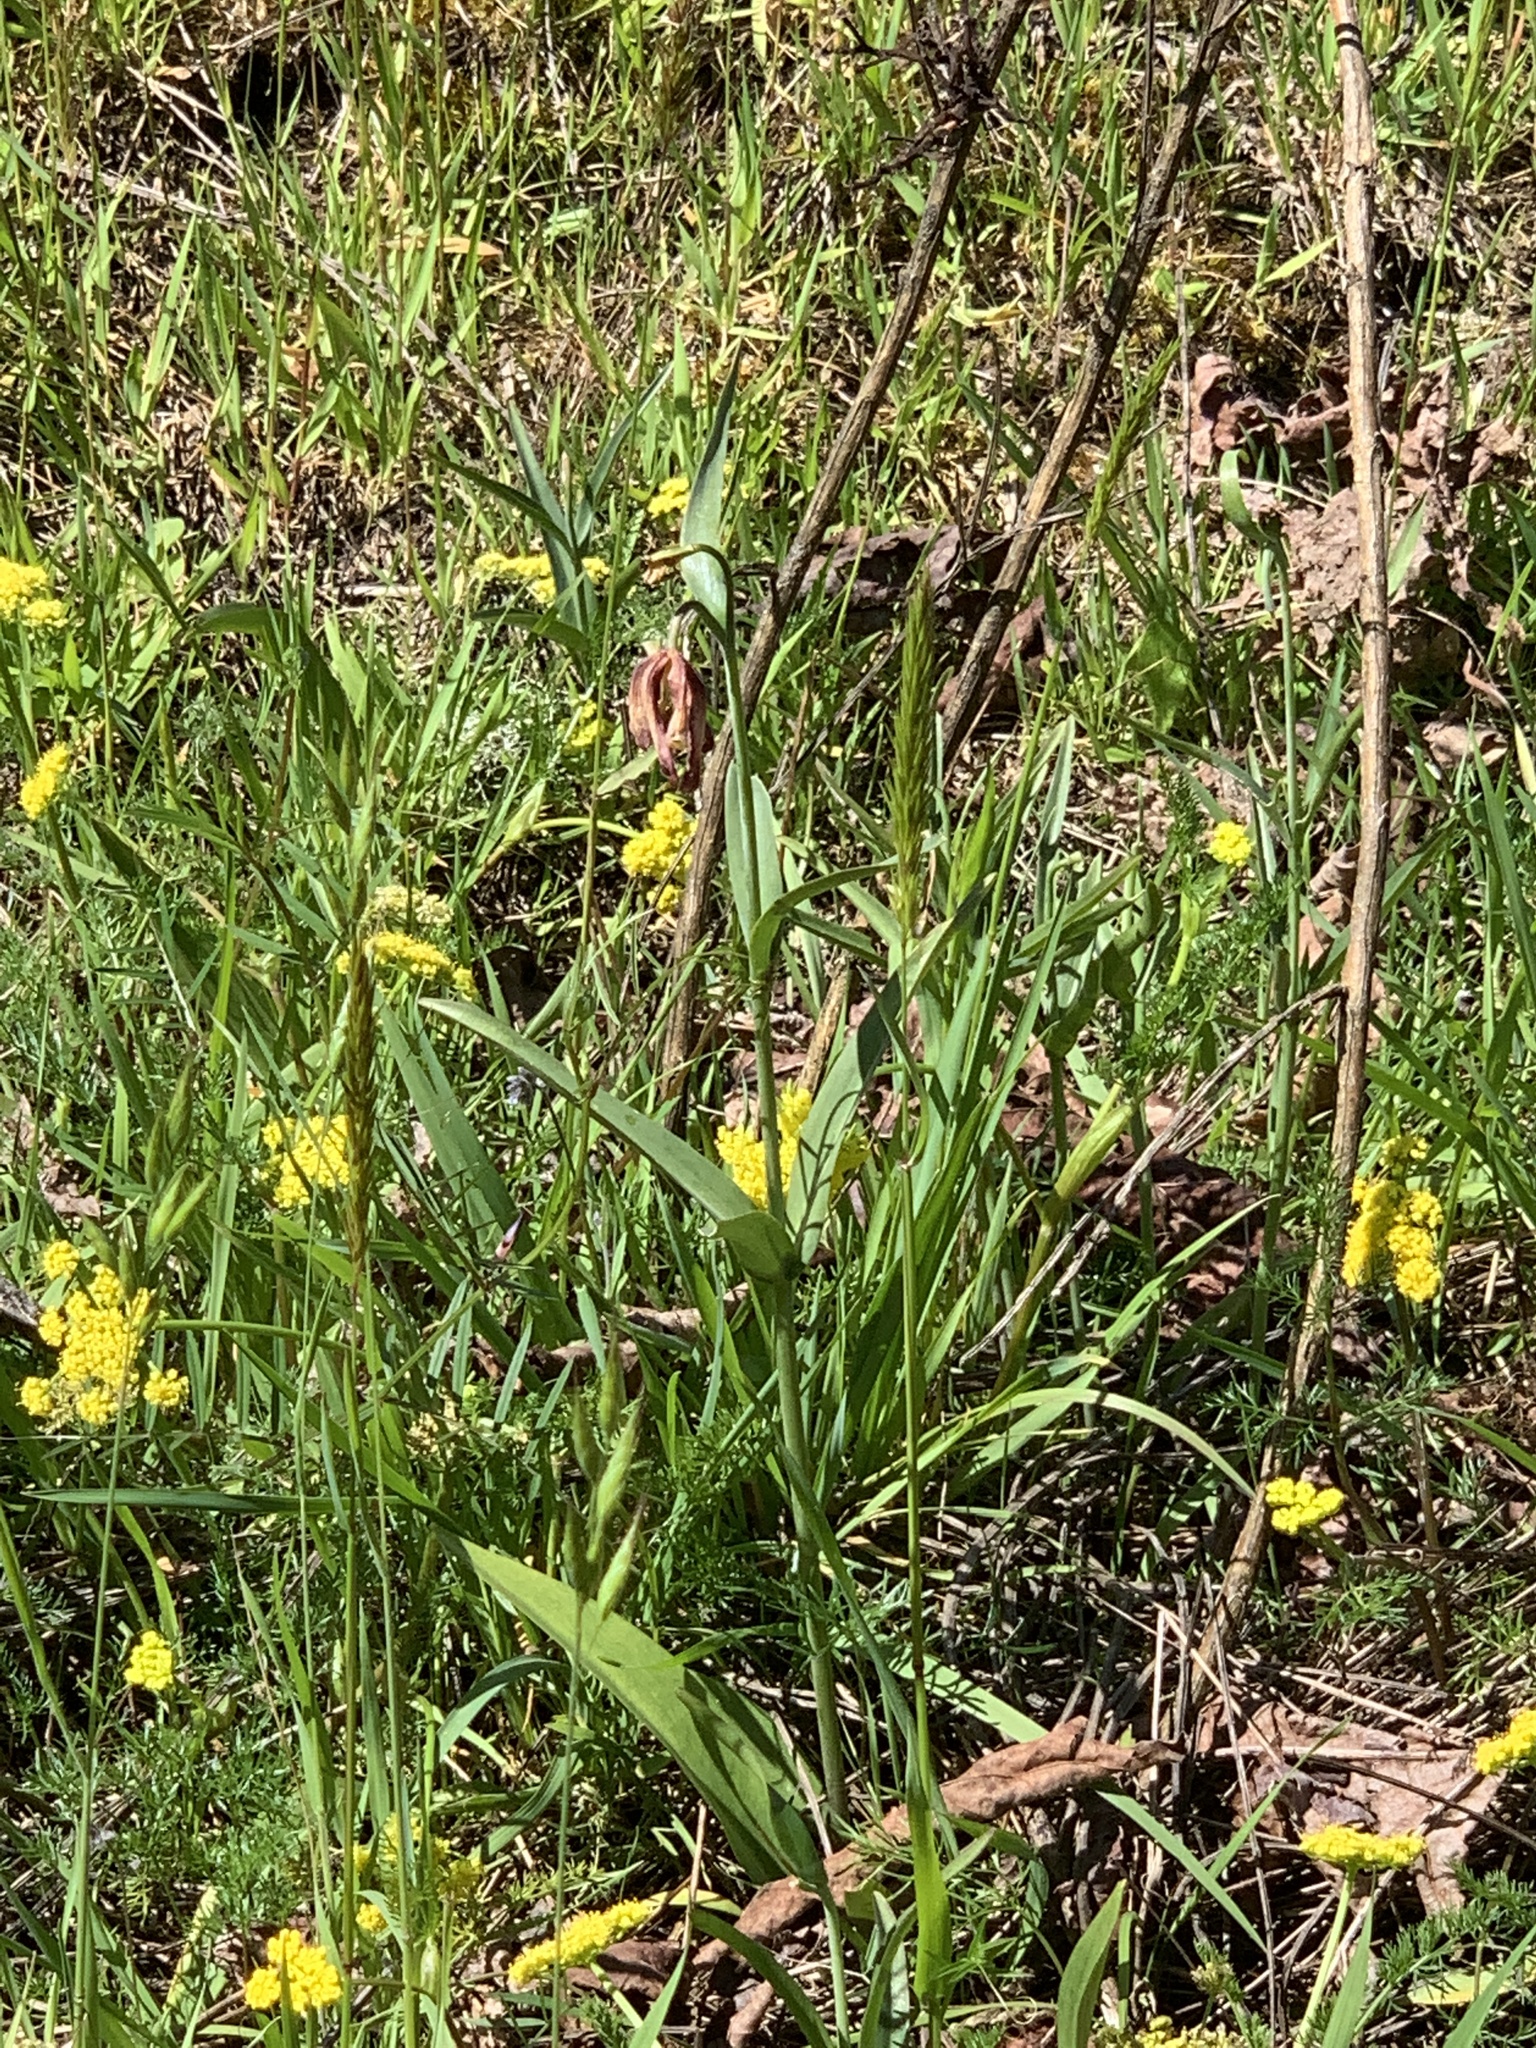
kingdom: Plantae
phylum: Tracheophyta
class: Liliopsida
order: Liliales
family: Liliaceae
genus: Fritillaria
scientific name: Fritillaria affinis
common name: Ojai fritillary
